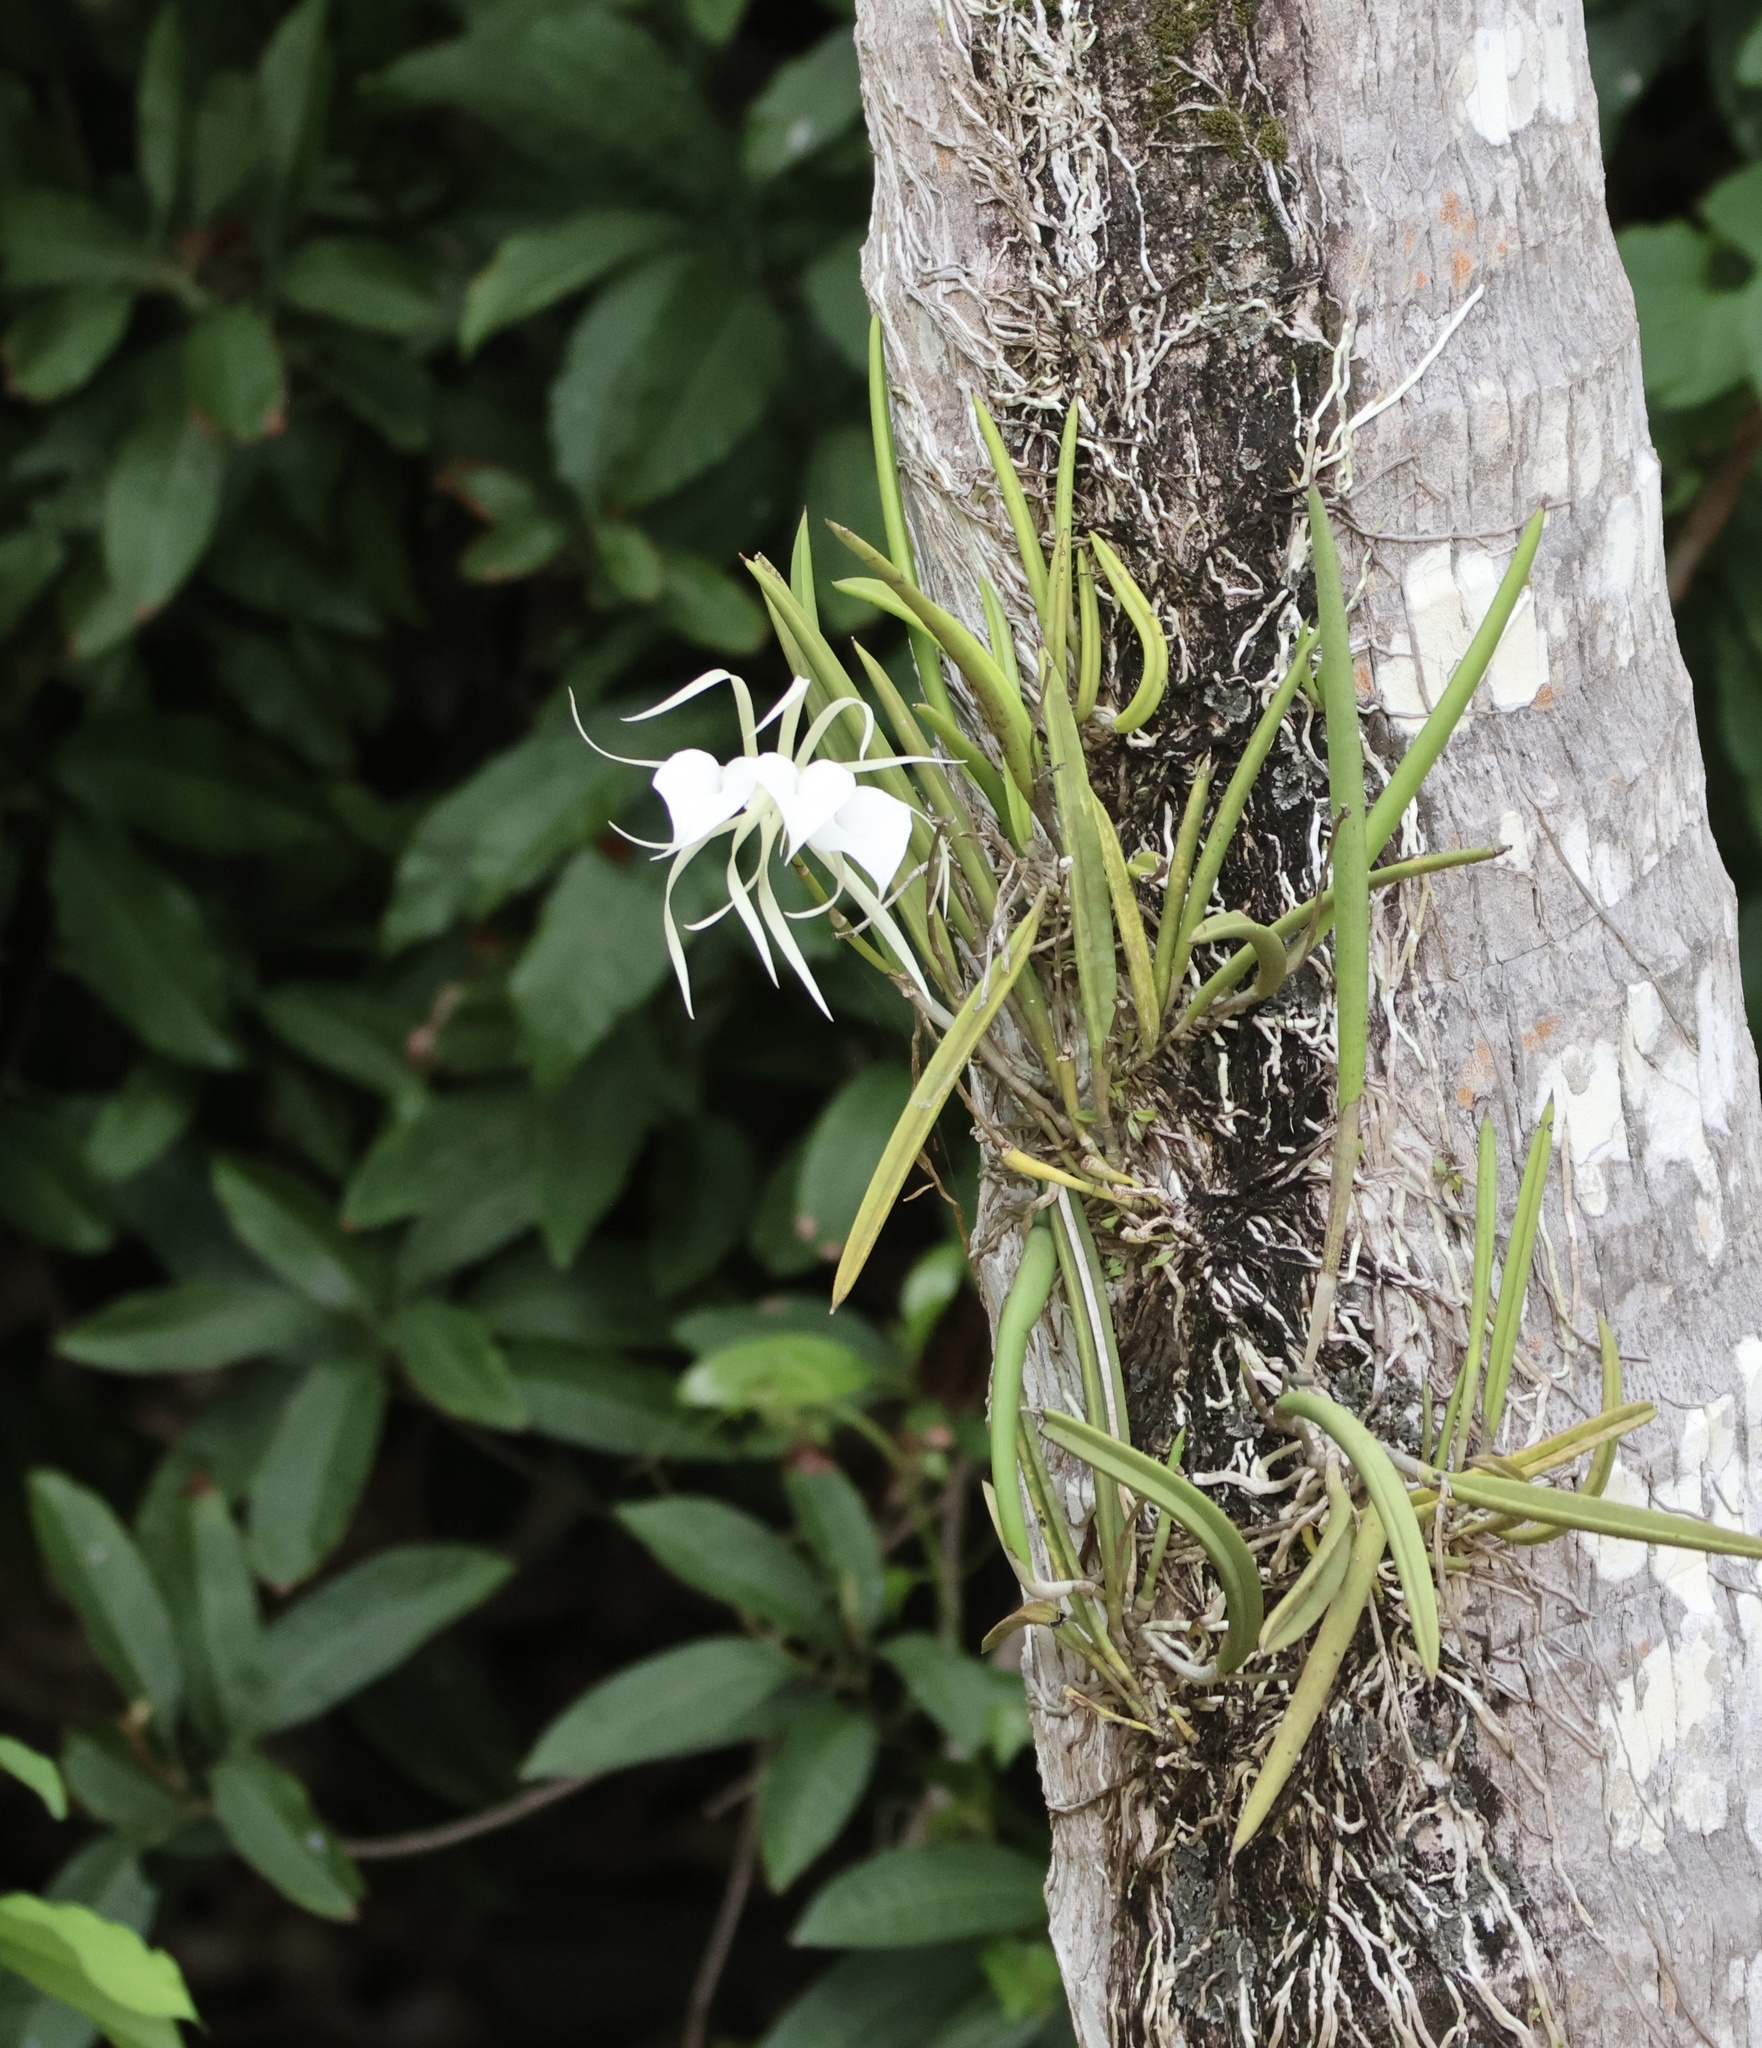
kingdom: Plantae
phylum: Tracheophyta
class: Liliopsida
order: Asparagales
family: Orchidaceae
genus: Brassavola
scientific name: Brassavola nodosa
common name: Lady of the night
